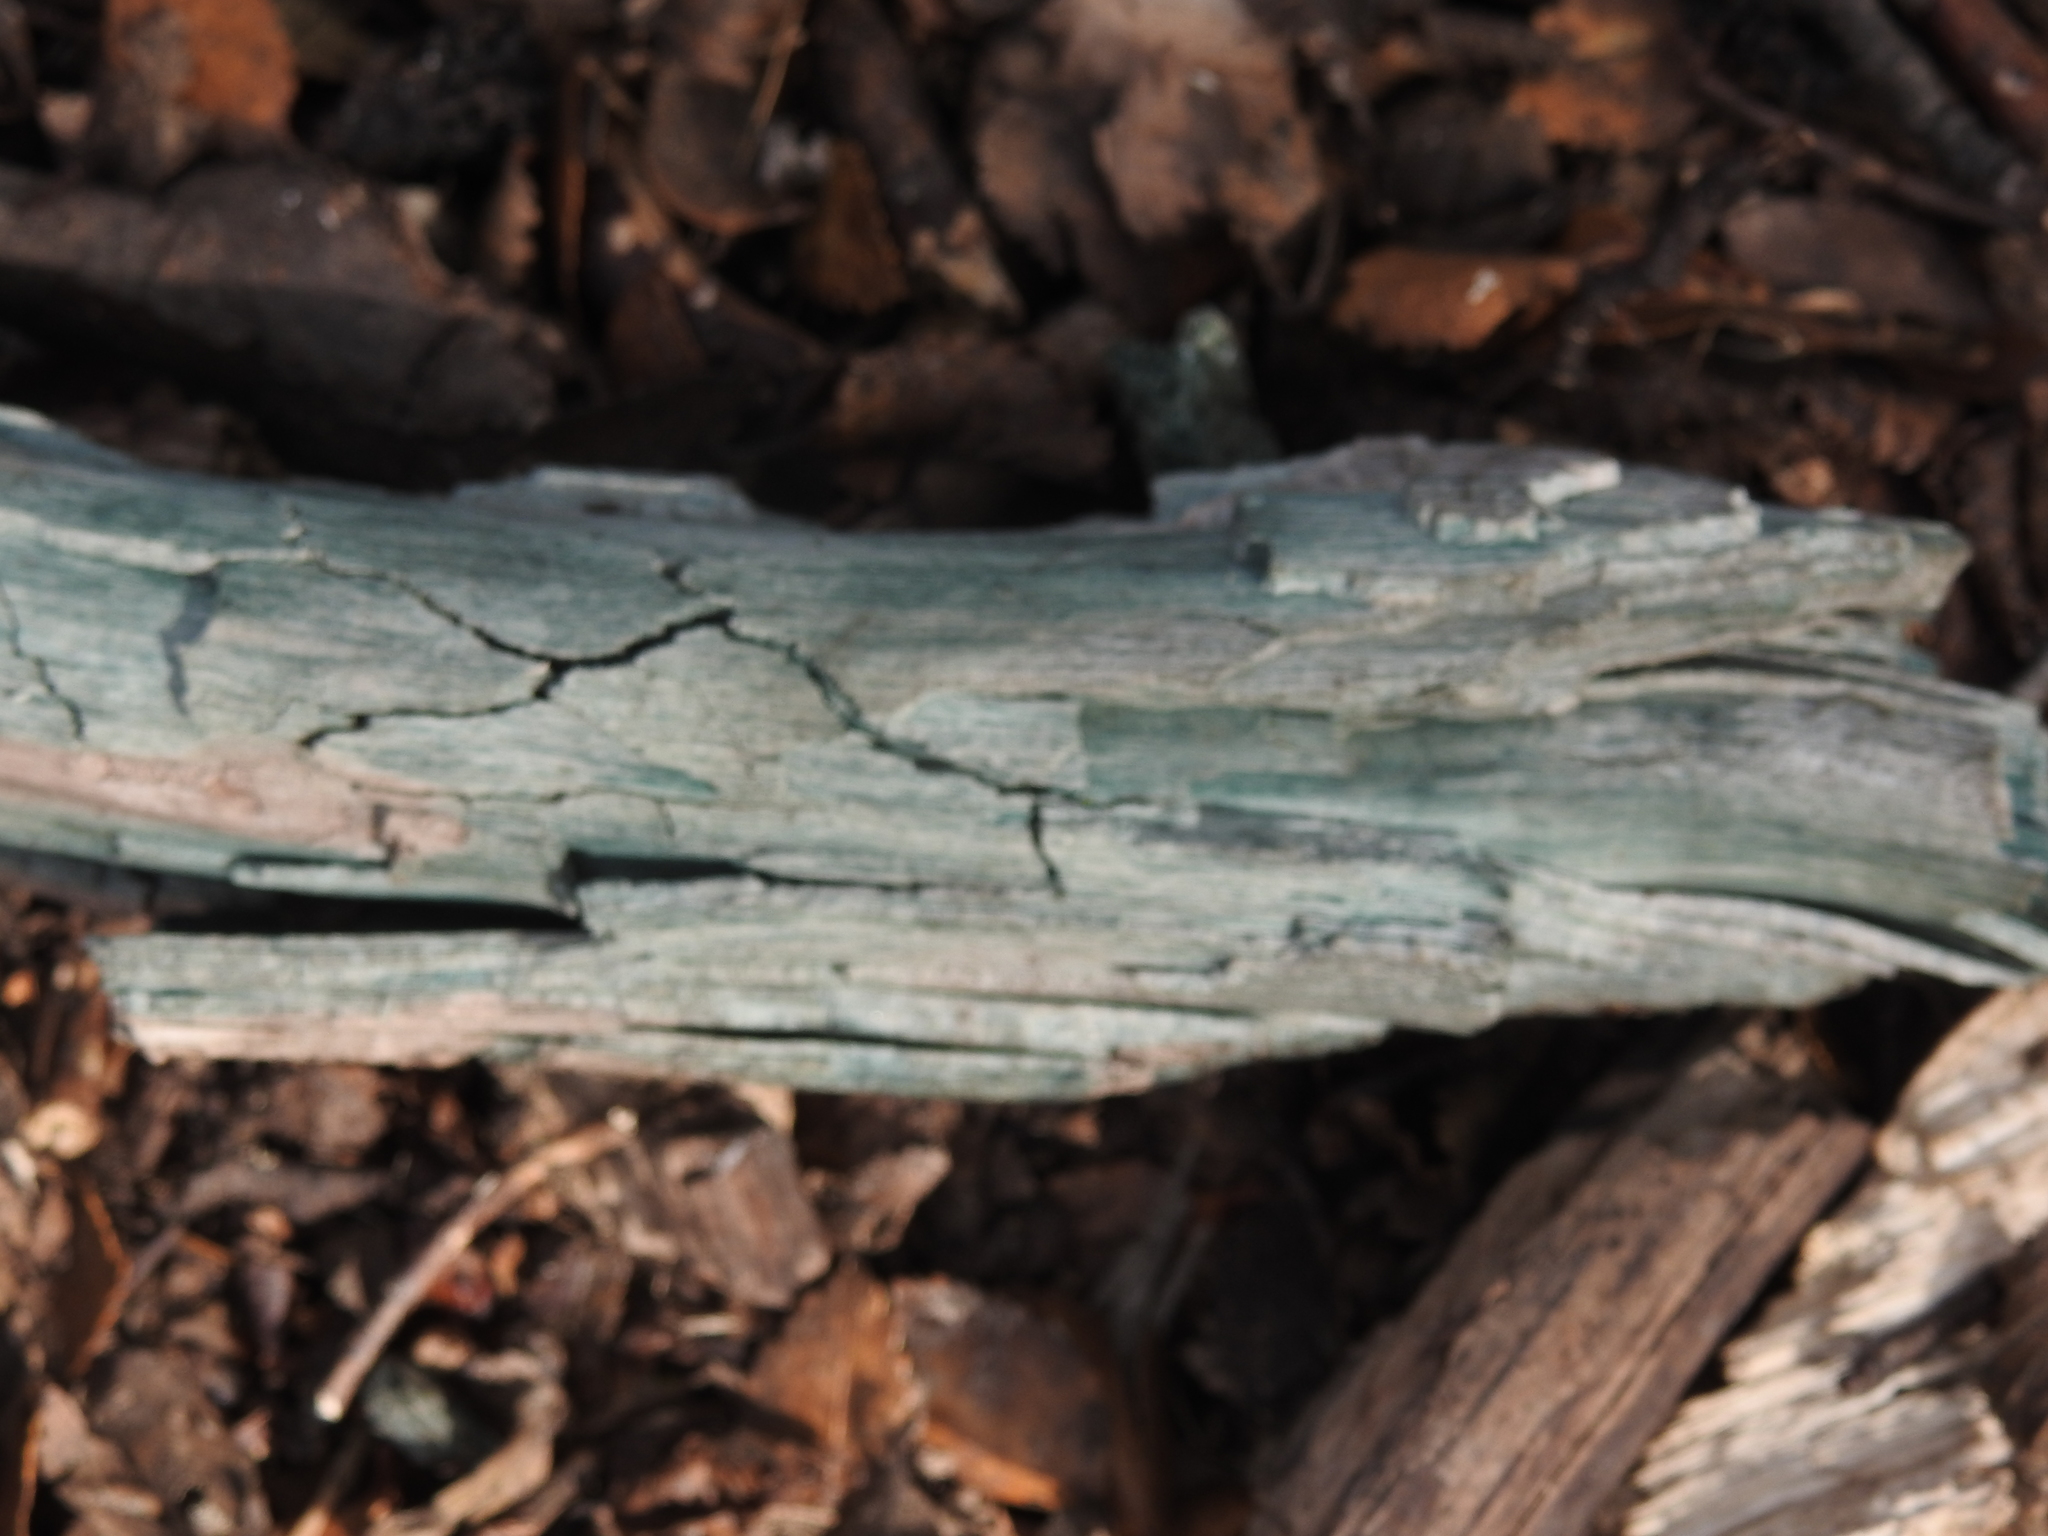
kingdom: Fungi
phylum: Ascomycota
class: Leotiomycetes
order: Helotiales
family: Chlorociboriaceae
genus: Chlorociboria
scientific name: Chlorociboria
